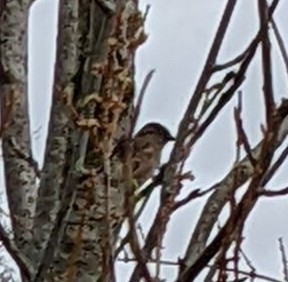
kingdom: Animalia
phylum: Chordata
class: Aves
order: Passeriformes
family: Passeridae
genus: Passer
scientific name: Passer domesticus
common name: House sparrow
